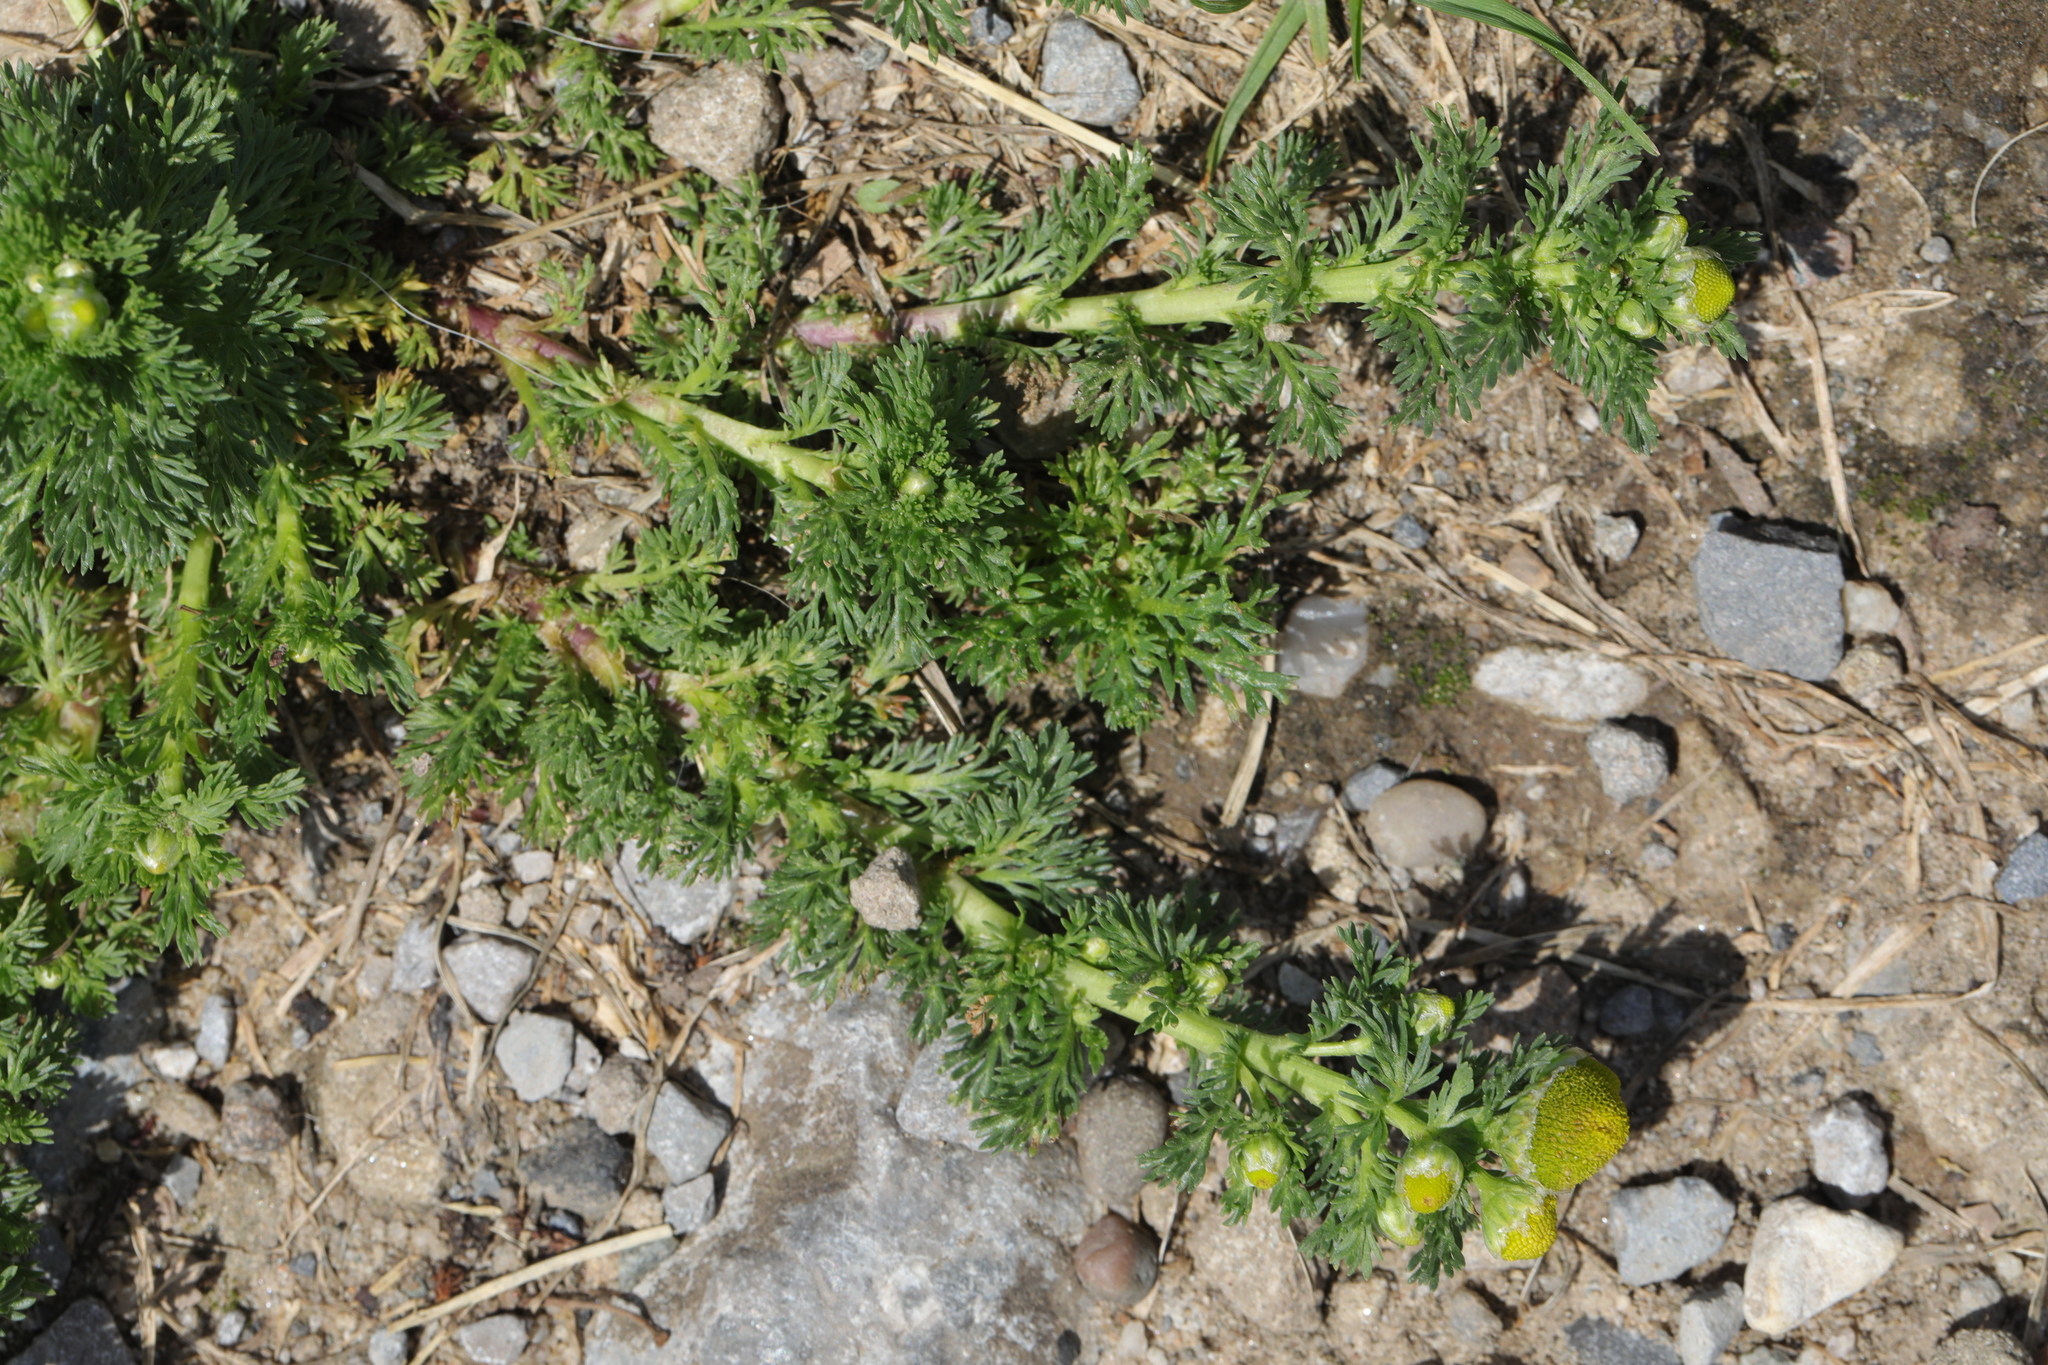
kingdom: Plantae
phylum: Tracheophyta
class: Magnoliopsida
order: Asterales
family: Asteraceae
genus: Matricaria
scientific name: Matricaria discoidea
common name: Disc mayweed
